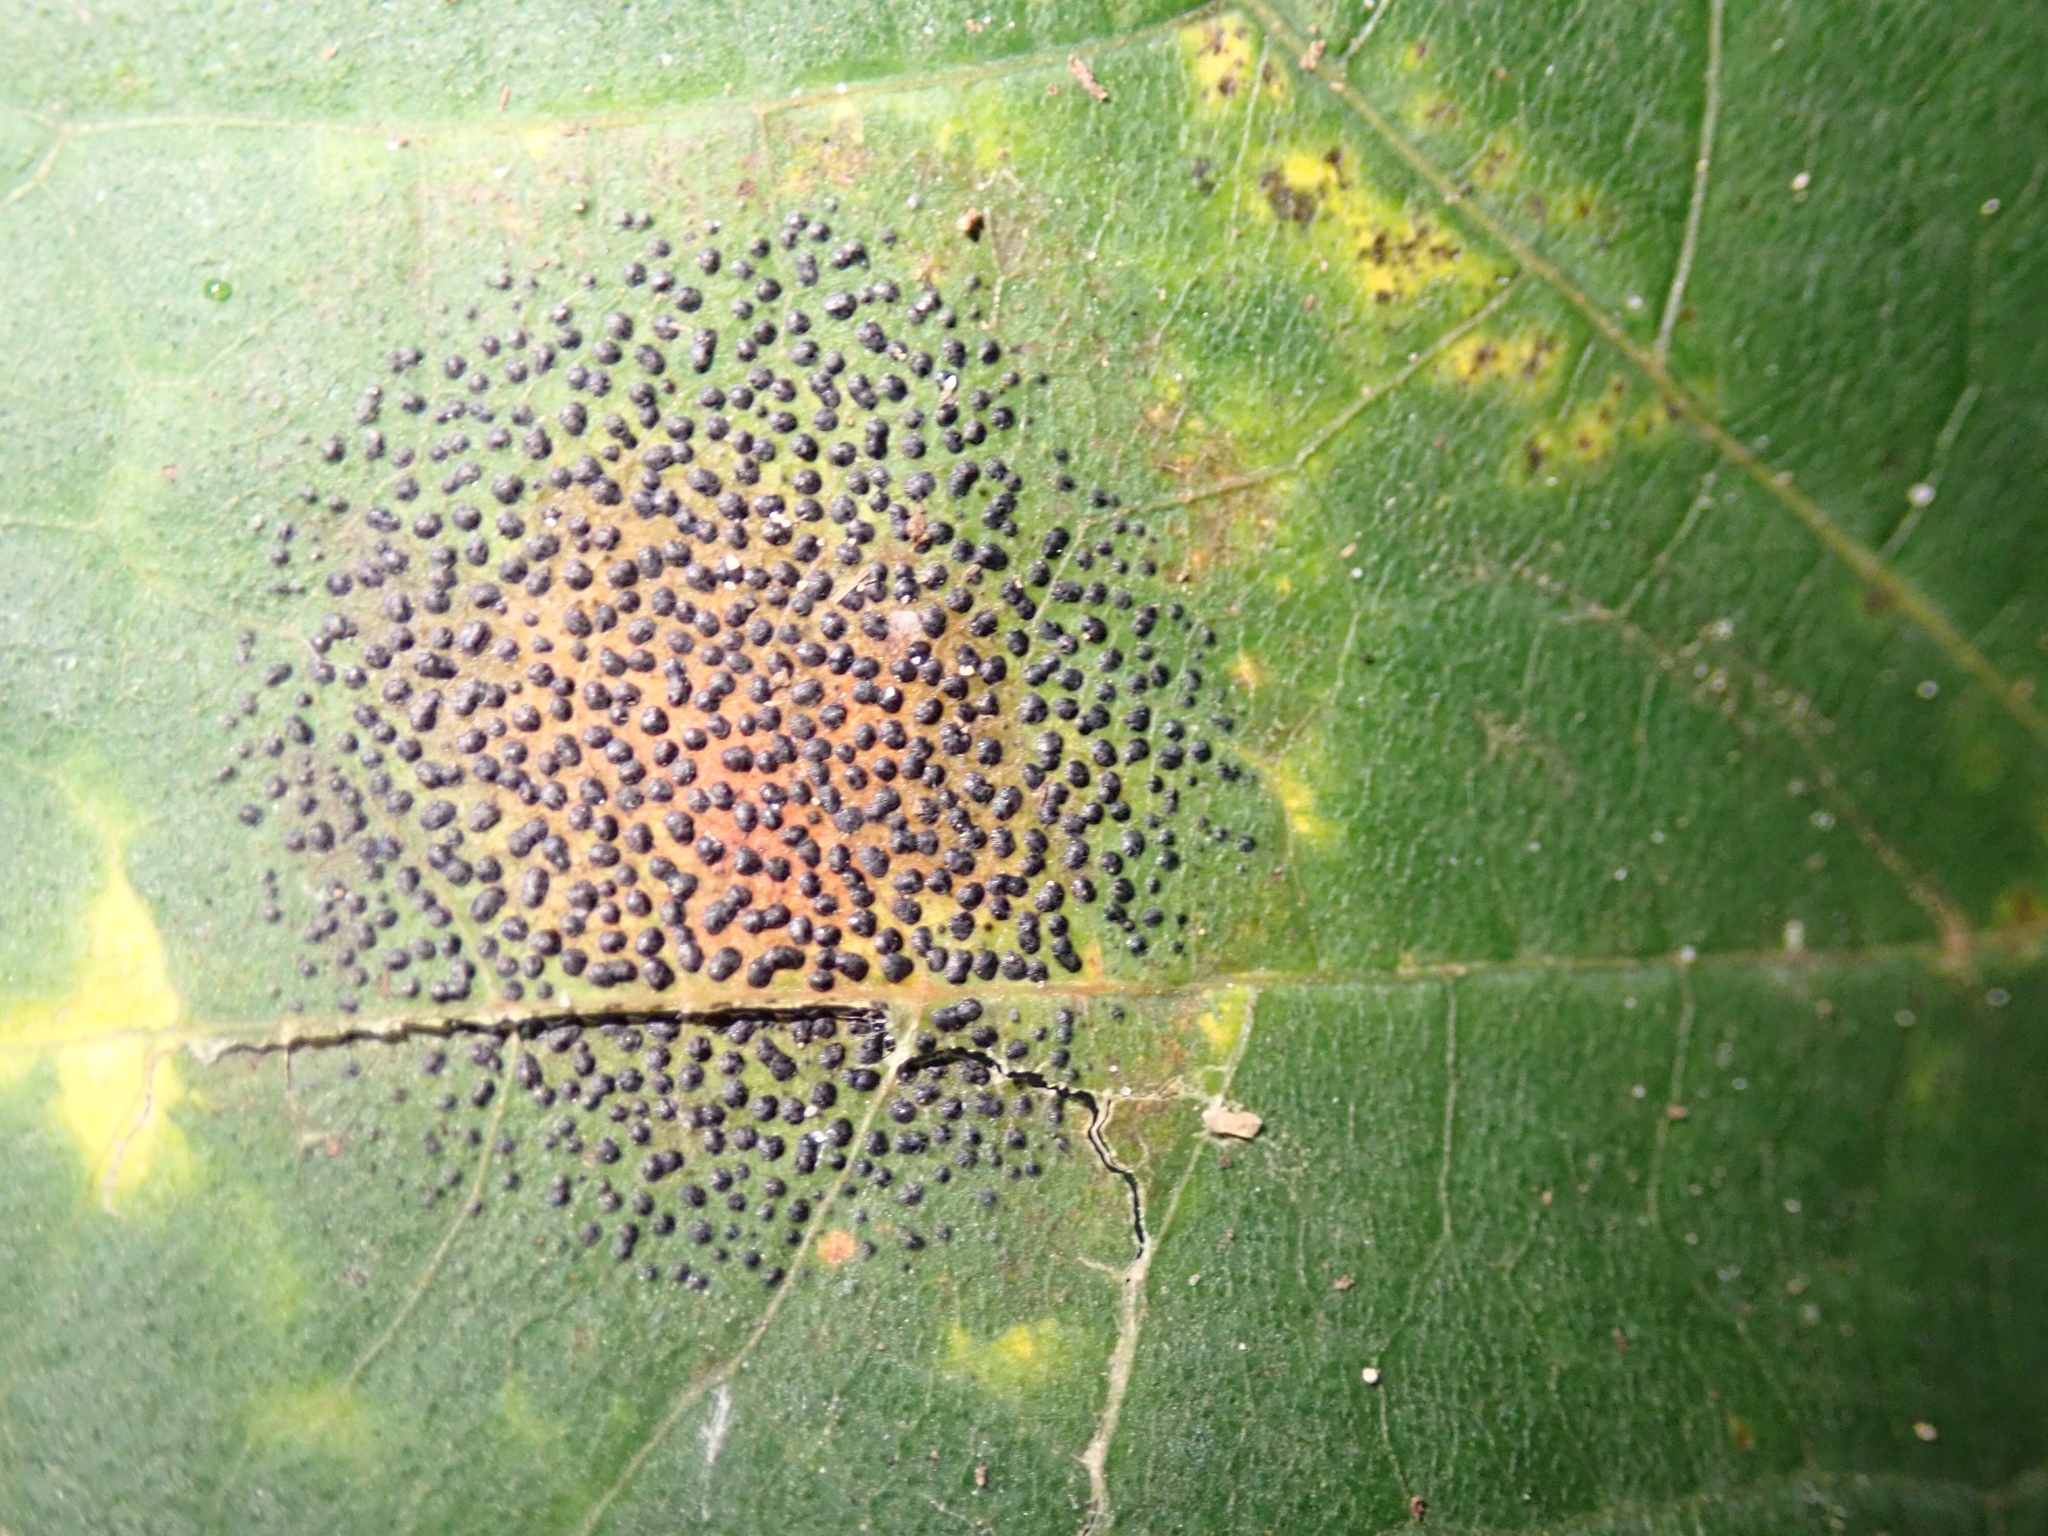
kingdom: Fungi
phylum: Ascomycota
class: Leotiomycetes
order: Rhytismatales
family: Rhytismataceae
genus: Rhytisma
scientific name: Rhytisma punctatum
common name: Speckled tar spot
